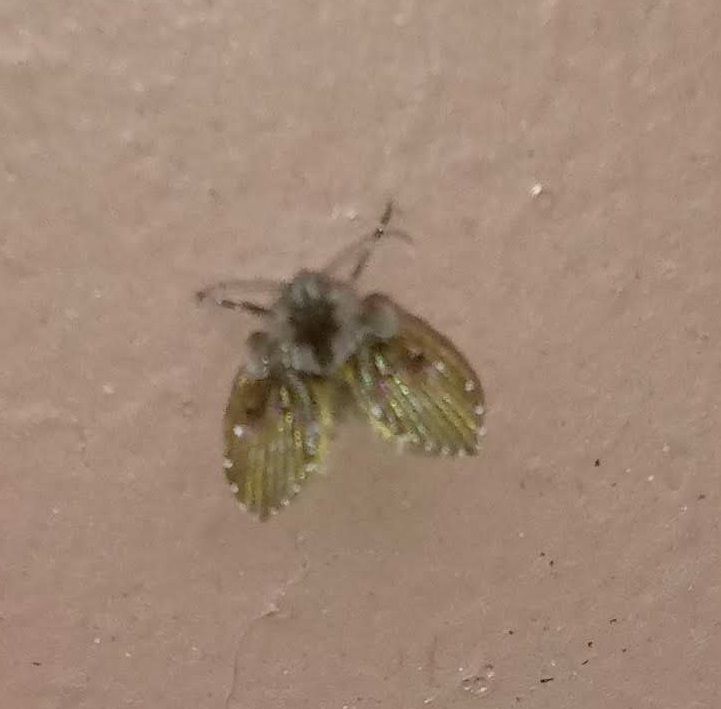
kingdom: Animalia
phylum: Arthropoda
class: Insecta
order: Diptera
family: Psychodidae
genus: Clogmia
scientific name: Clogmia albipunctatus
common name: White-spotted moth fly
